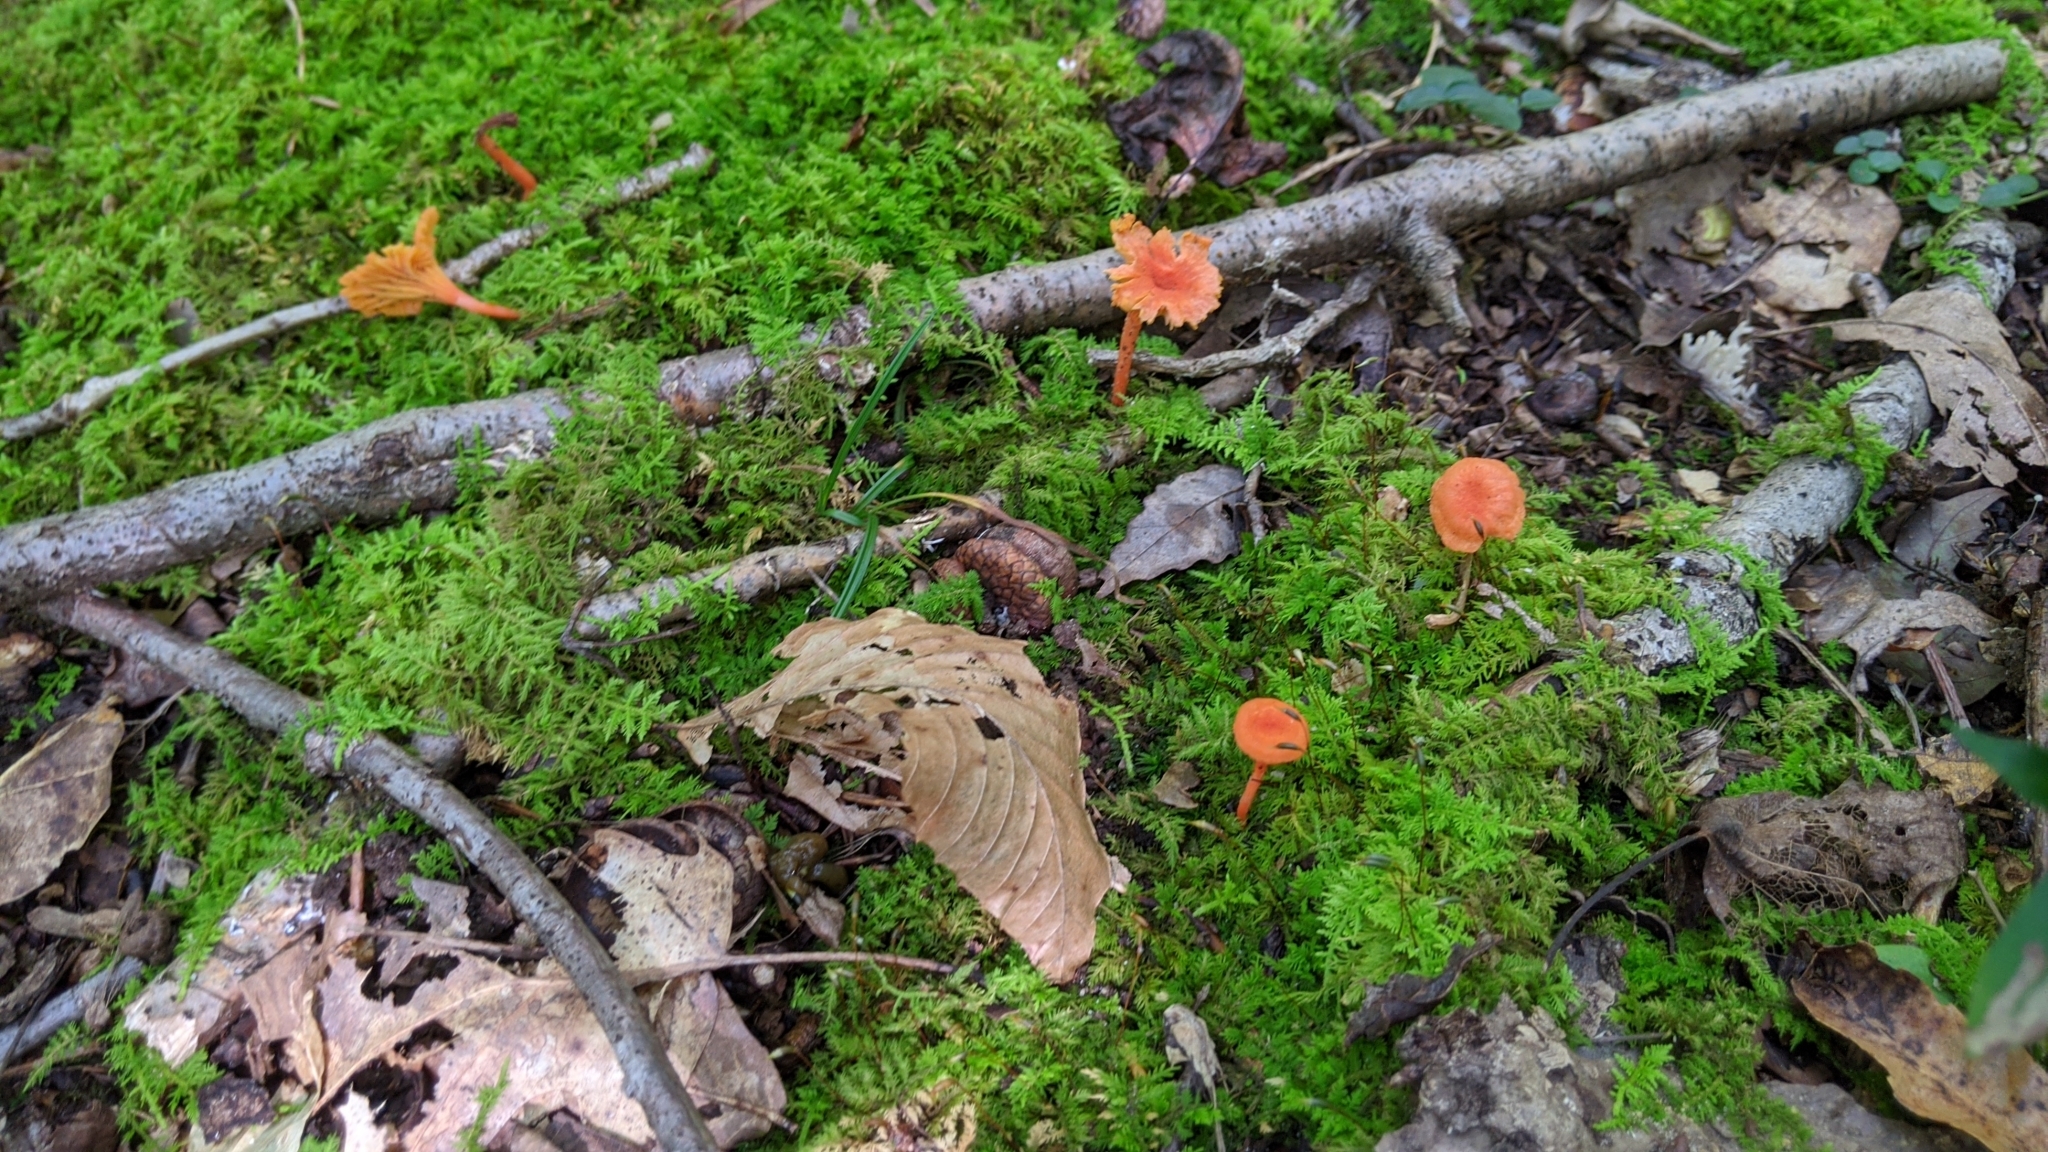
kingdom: Fungi
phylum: Basidiomycota
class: Agaricomycetes
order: Cantharellales
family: Hydnaceae
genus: Cantharellus
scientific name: Cantharellus cinnabarinus
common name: Cinnabar chanterelle
